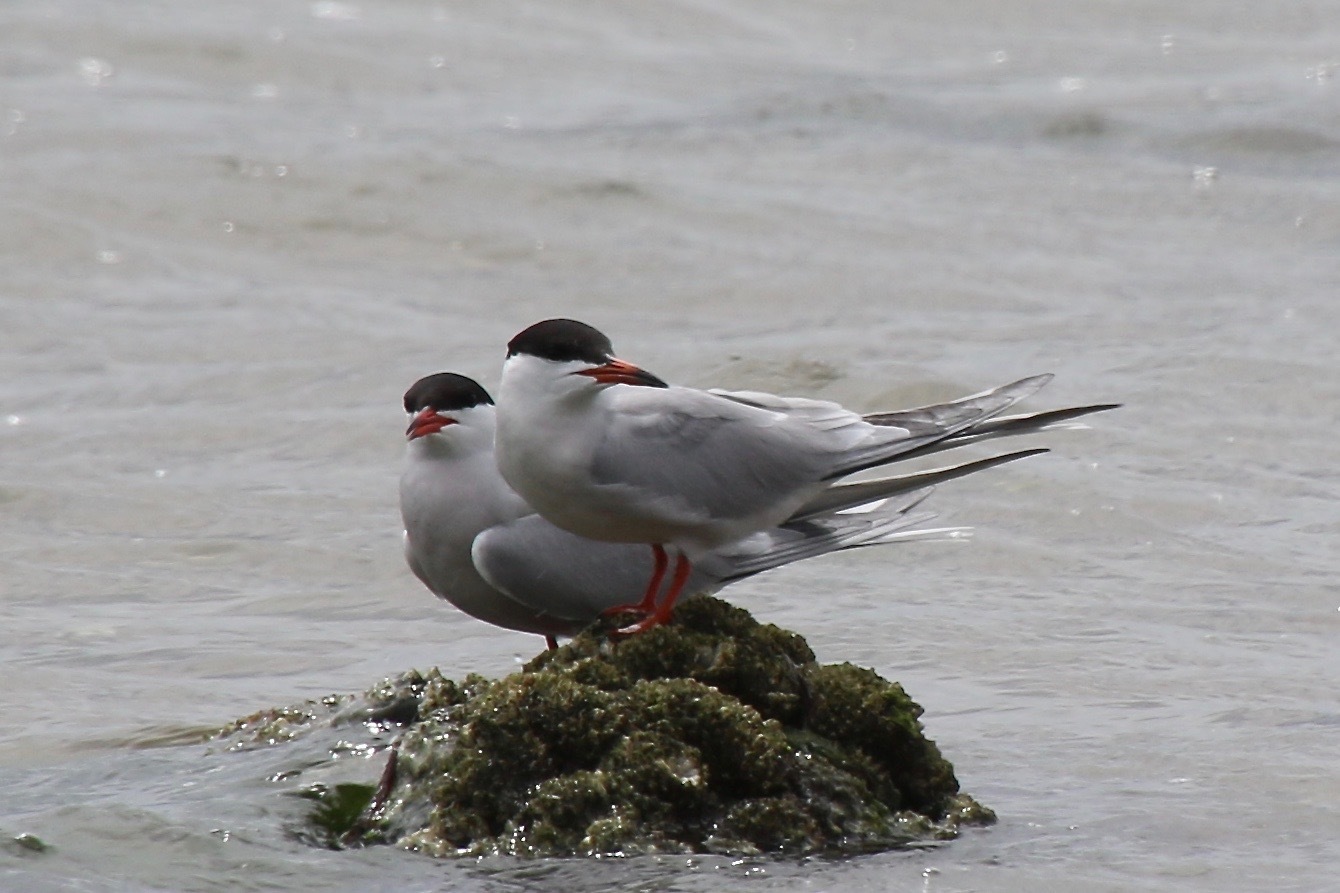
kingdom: Animalia
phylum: Chordata
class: Aves
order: Charadriiformes
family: Laridae
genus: Sterna
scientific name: Sterna hirundo
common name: Common tern
